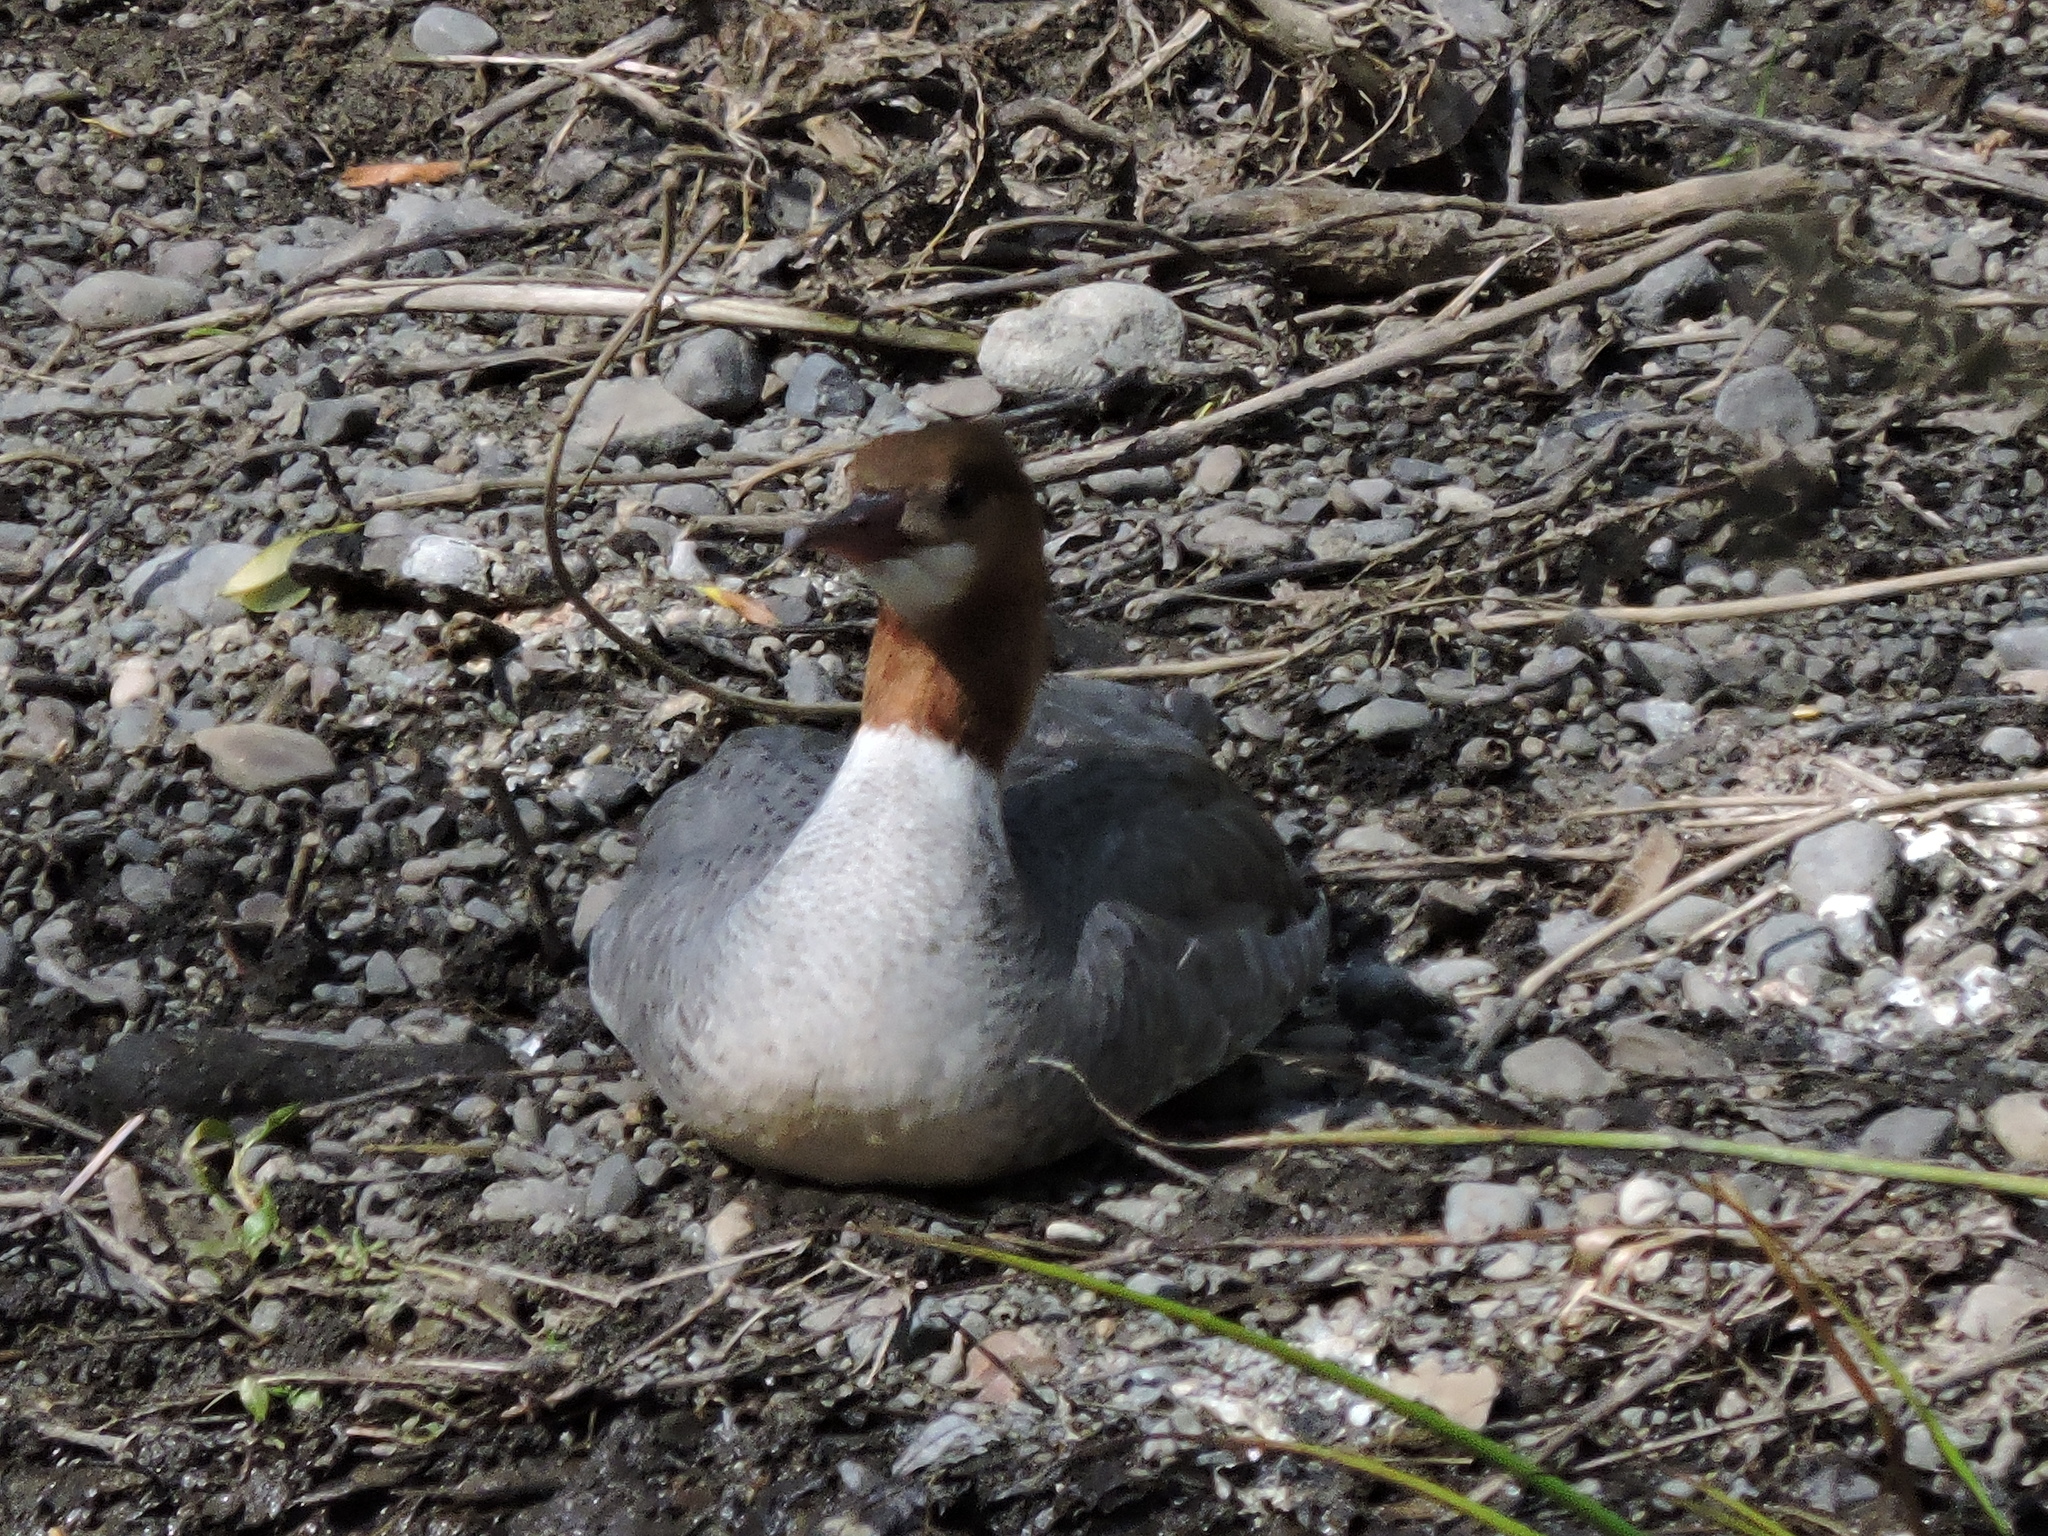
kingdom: Animalia
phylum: Chordata
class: Aves
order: Anseriformes
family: Anatidae
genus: Mergus
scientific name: Mergus merganser
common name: Common merganser
